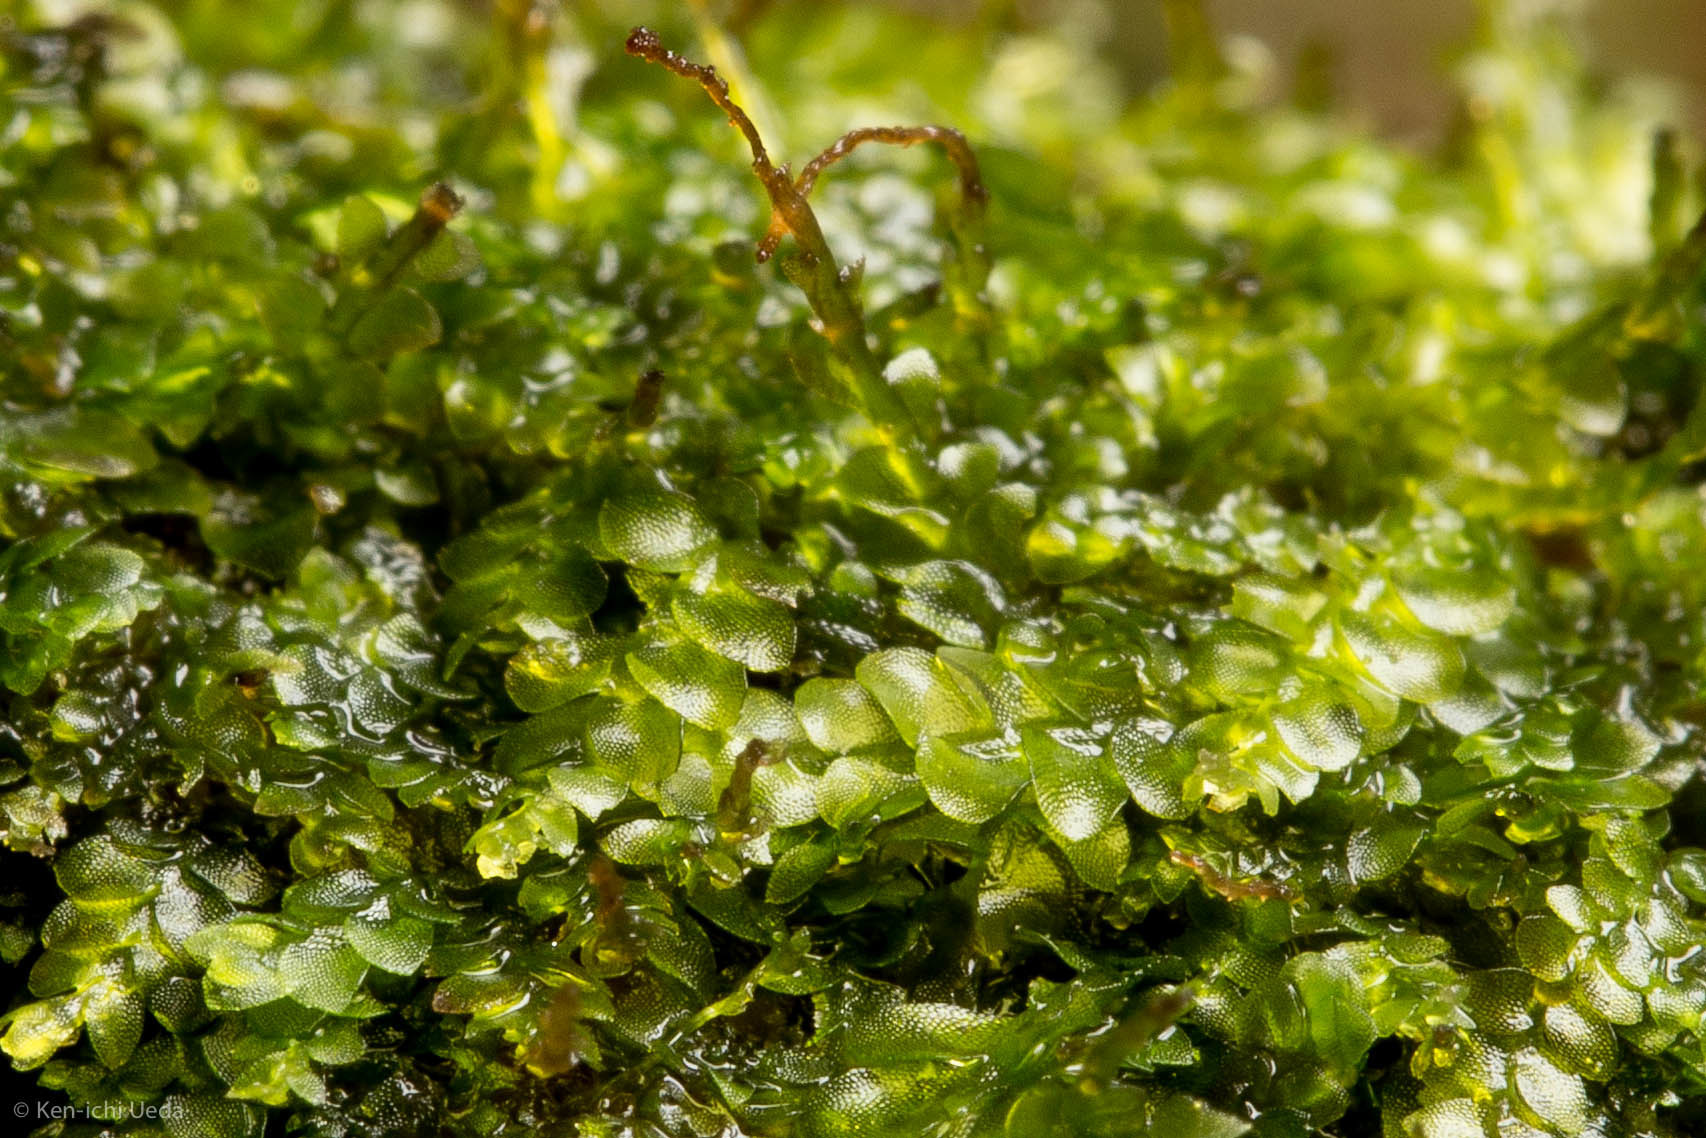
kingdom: Plantae
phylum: Marchantiophyta
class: Jungermanniopsida
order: Jungermanniales
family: Calypogeiaceae
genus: Calypogeia
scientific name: Calypogeia neogaea
